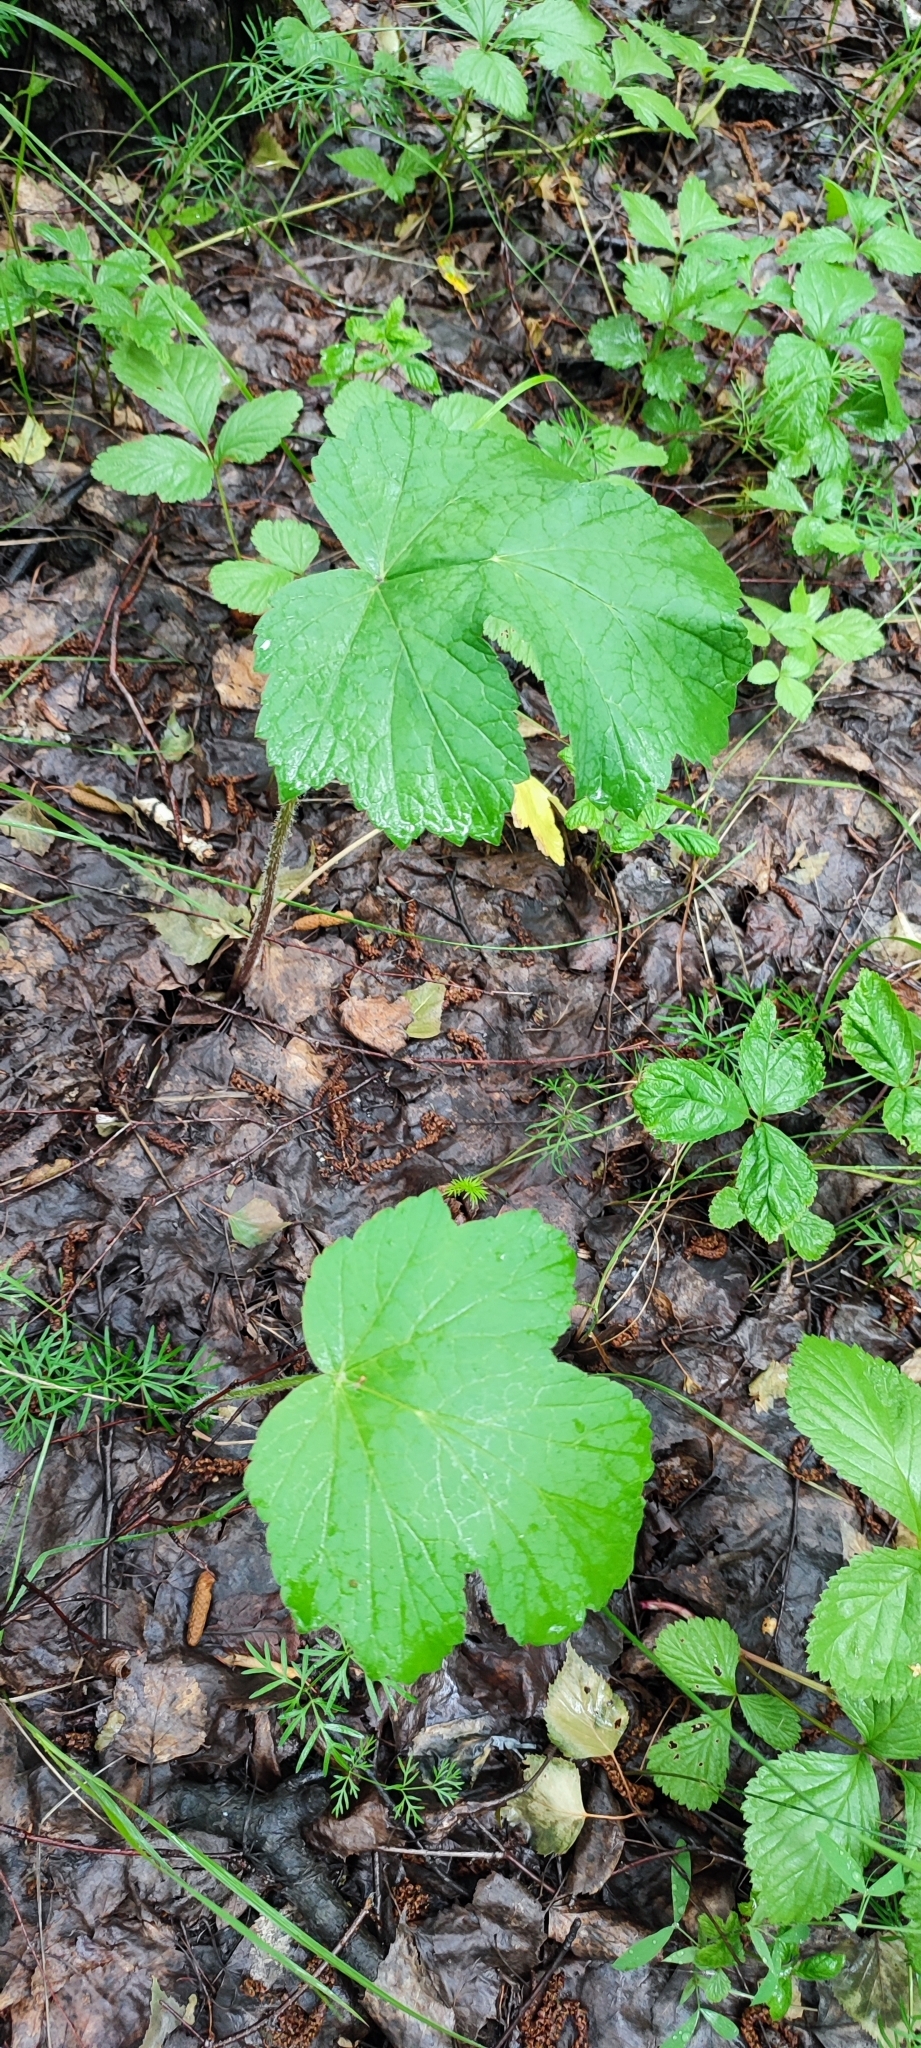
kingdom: Plantae
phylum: Tracheophyta
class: Magnoliopsida
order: Apiales
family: Apiaceae
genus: Heracleum
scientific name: Heracleum sphondylium
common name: Hogweed
